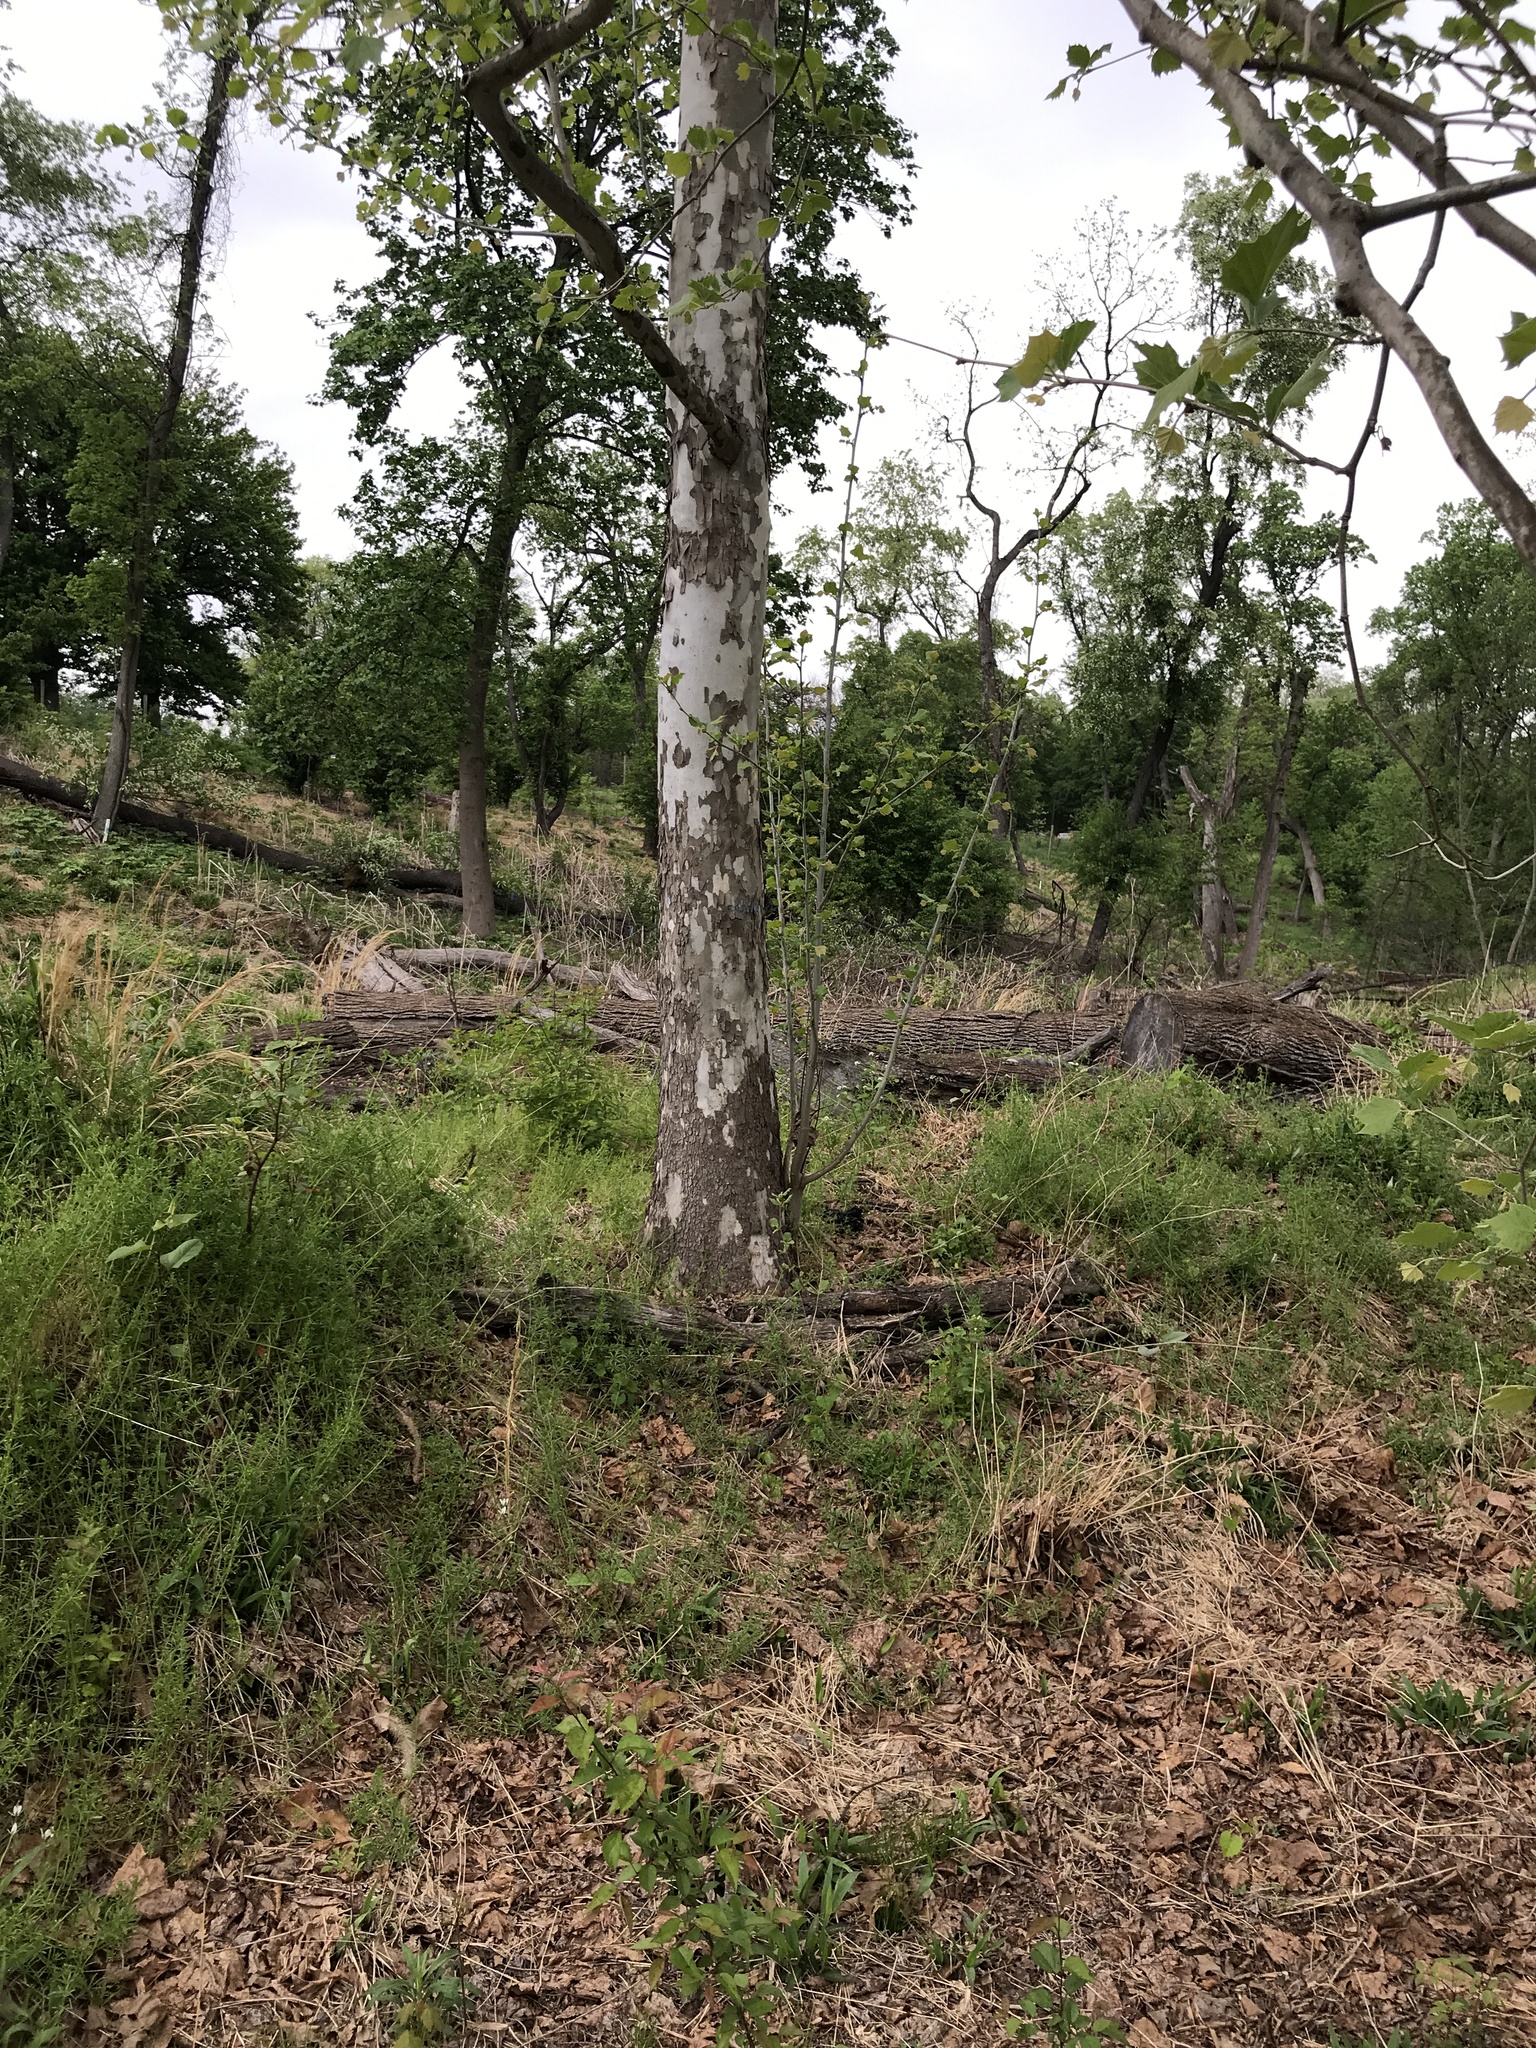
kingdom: Plantae
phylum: Tracheophyta
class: Magnoliopsida
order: Proteales
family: Platanaceae
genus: Platanus
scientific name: Platanus occidentalis
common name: American sycamore
